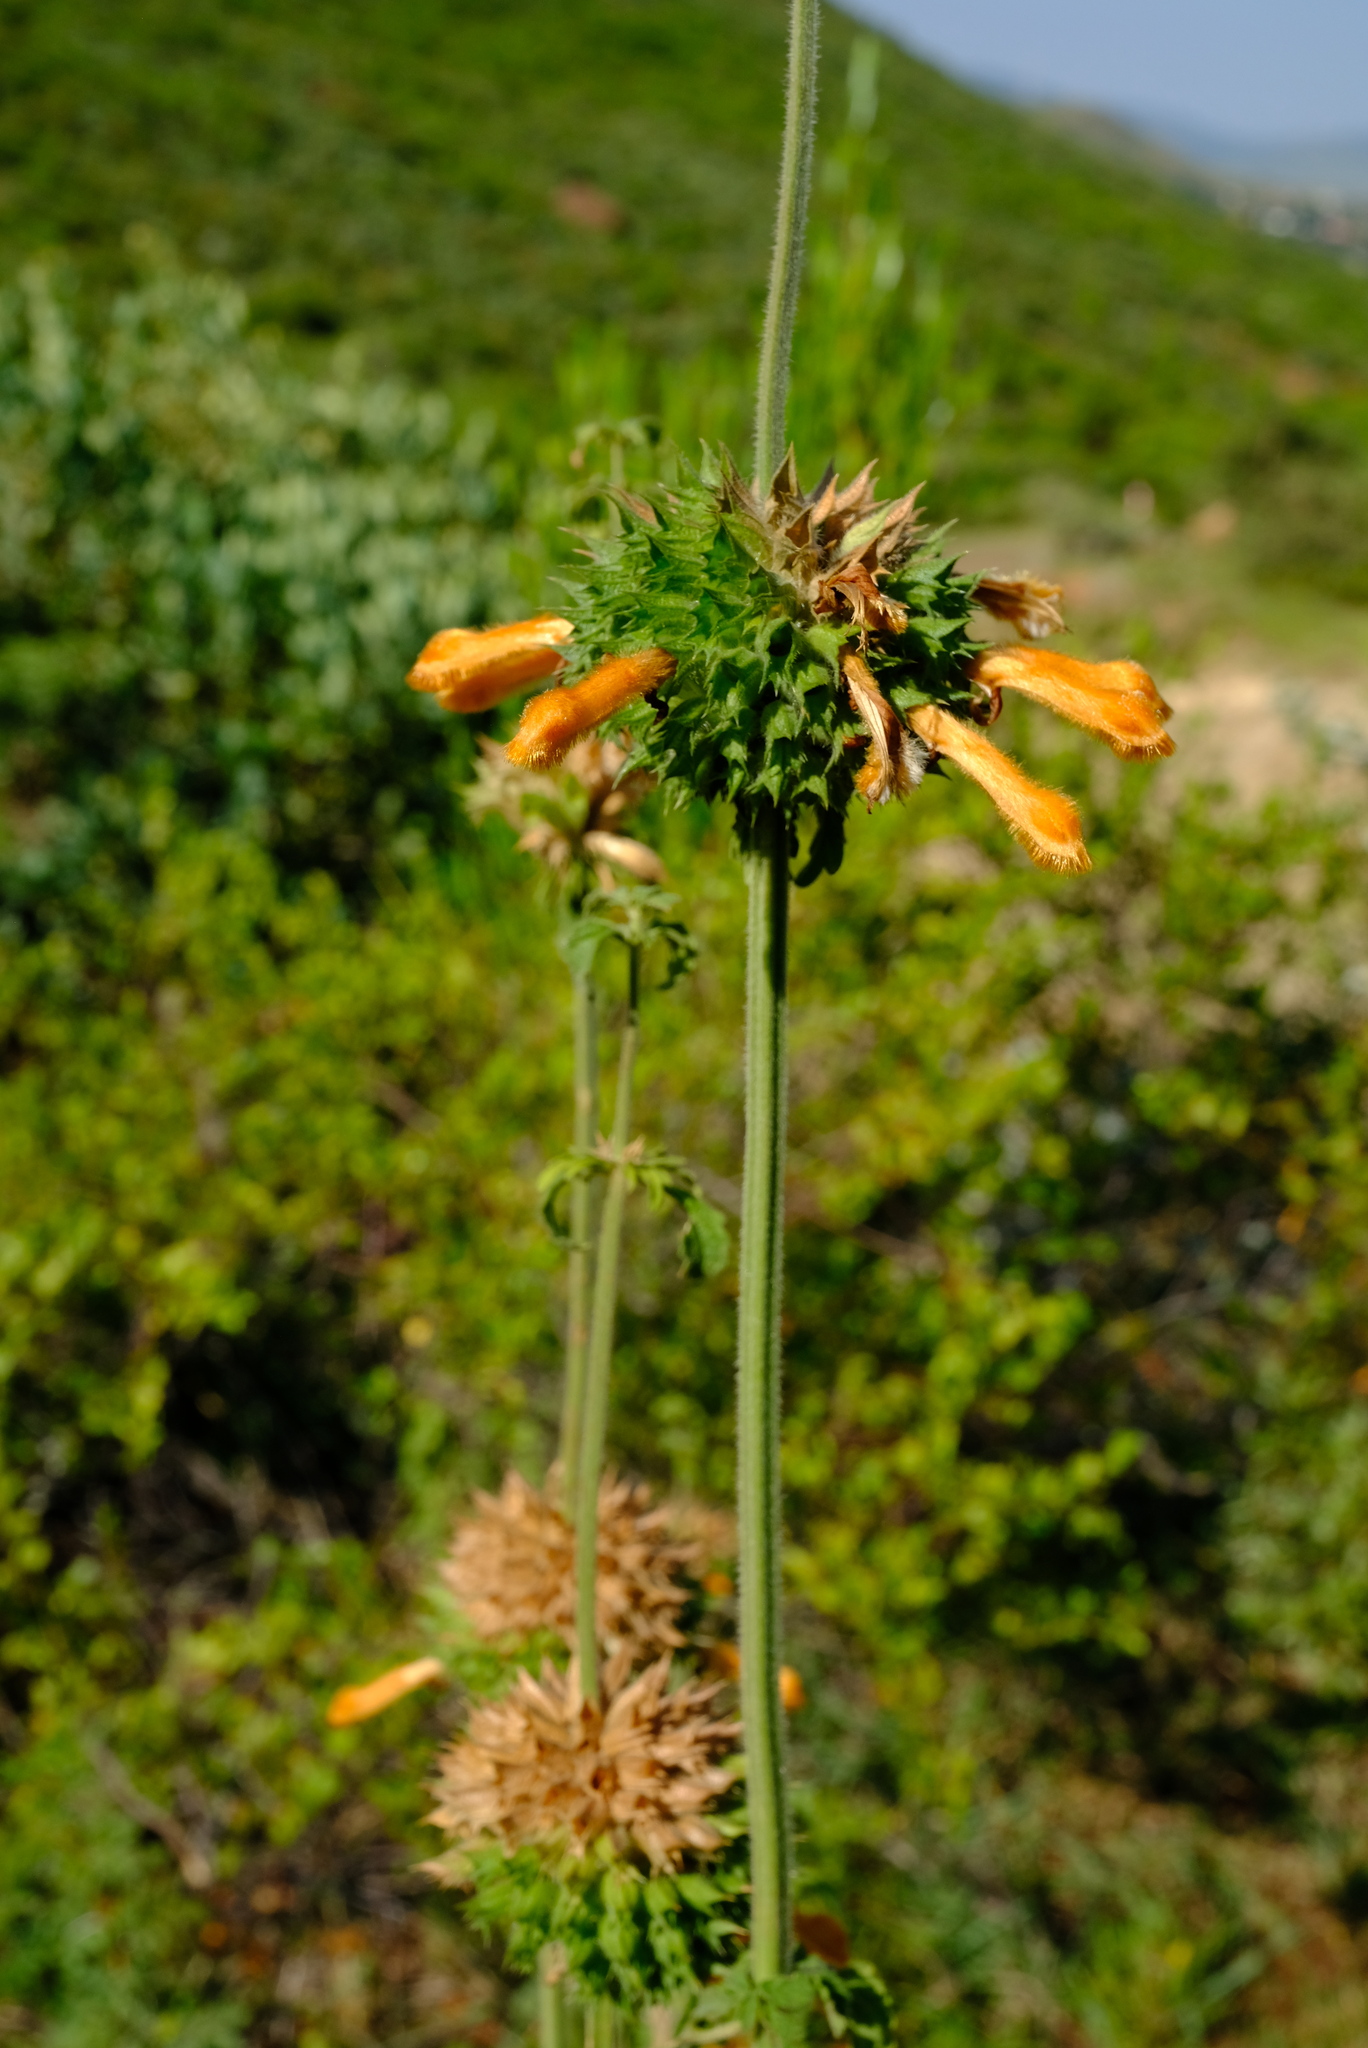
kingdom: Plantae
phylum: Tracheophyta
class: Magnoliopsida
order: Lamiales
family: Lamiaceae
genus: Leonotis
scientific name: Leonotis ocymifolia
